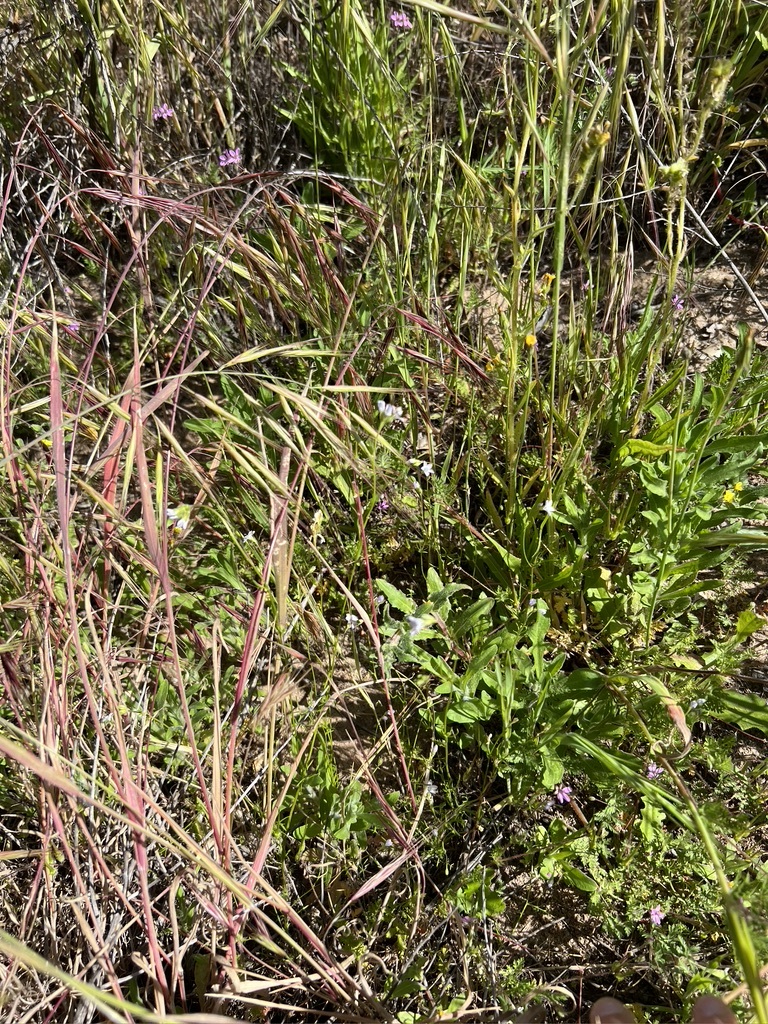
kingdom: Plantae
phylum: Tracheophyta
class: Magnoliopsida
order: Ericales
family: Polemoniaceae
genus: Gilia
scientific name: Gilia angelensis
